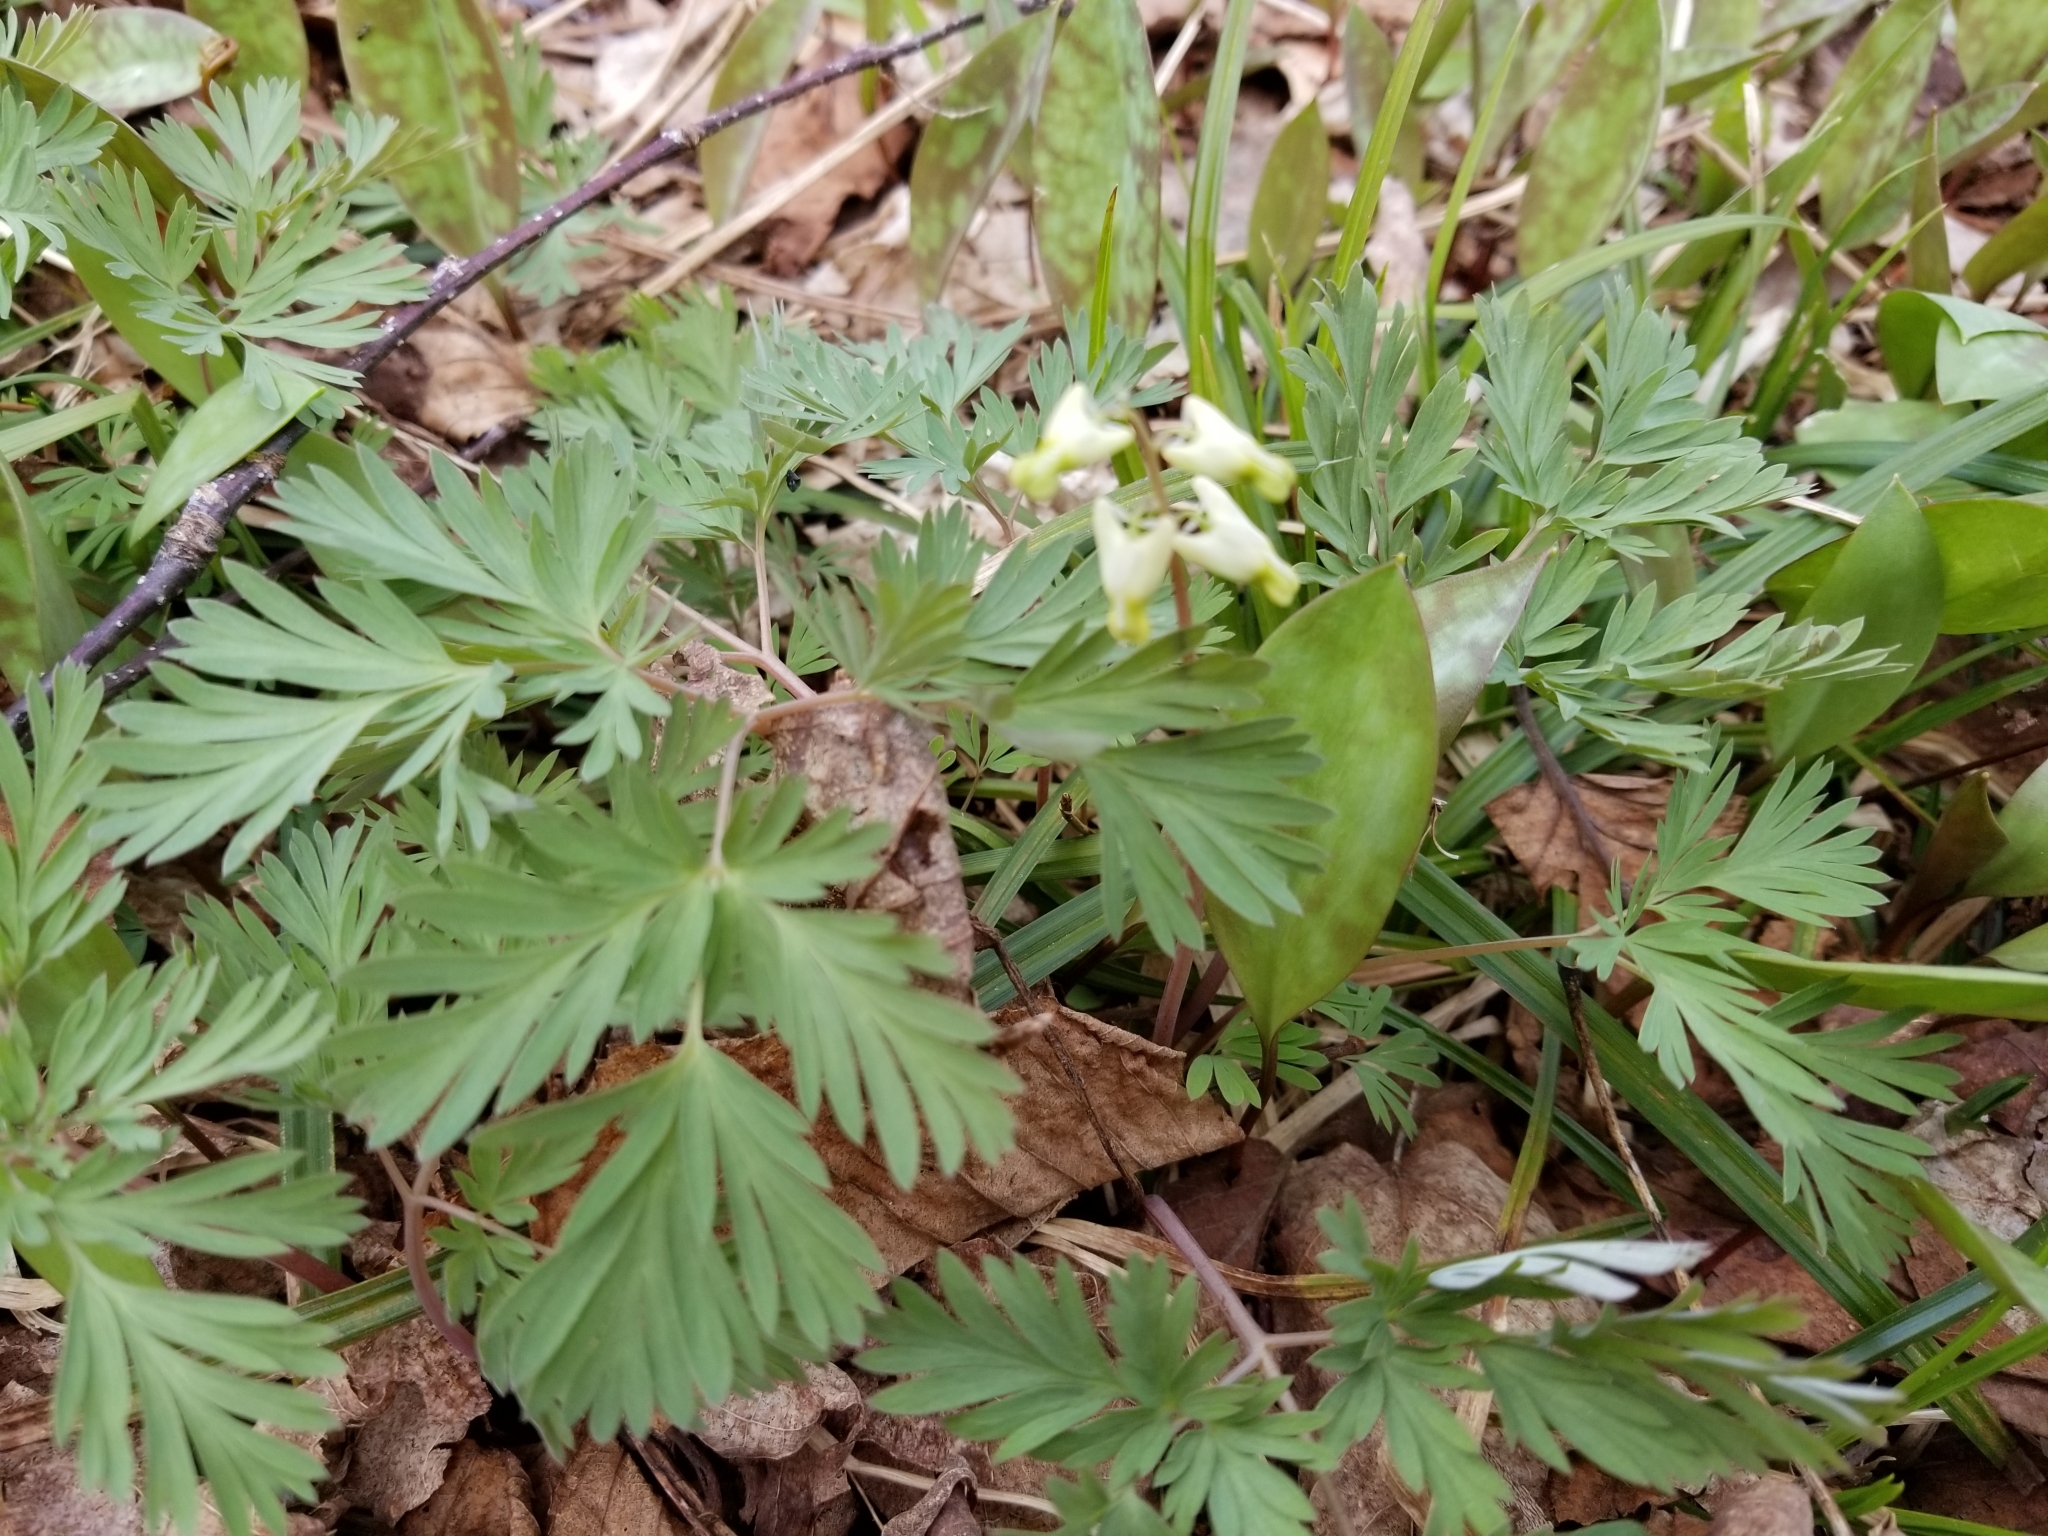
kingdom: Plantae
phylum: Tracheophyta
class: Magnoliopsida
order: Ranunculales
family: Papaveraceae
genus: Dicentra
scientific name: Dicentra cucullaria
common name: Dutchman's breeches
